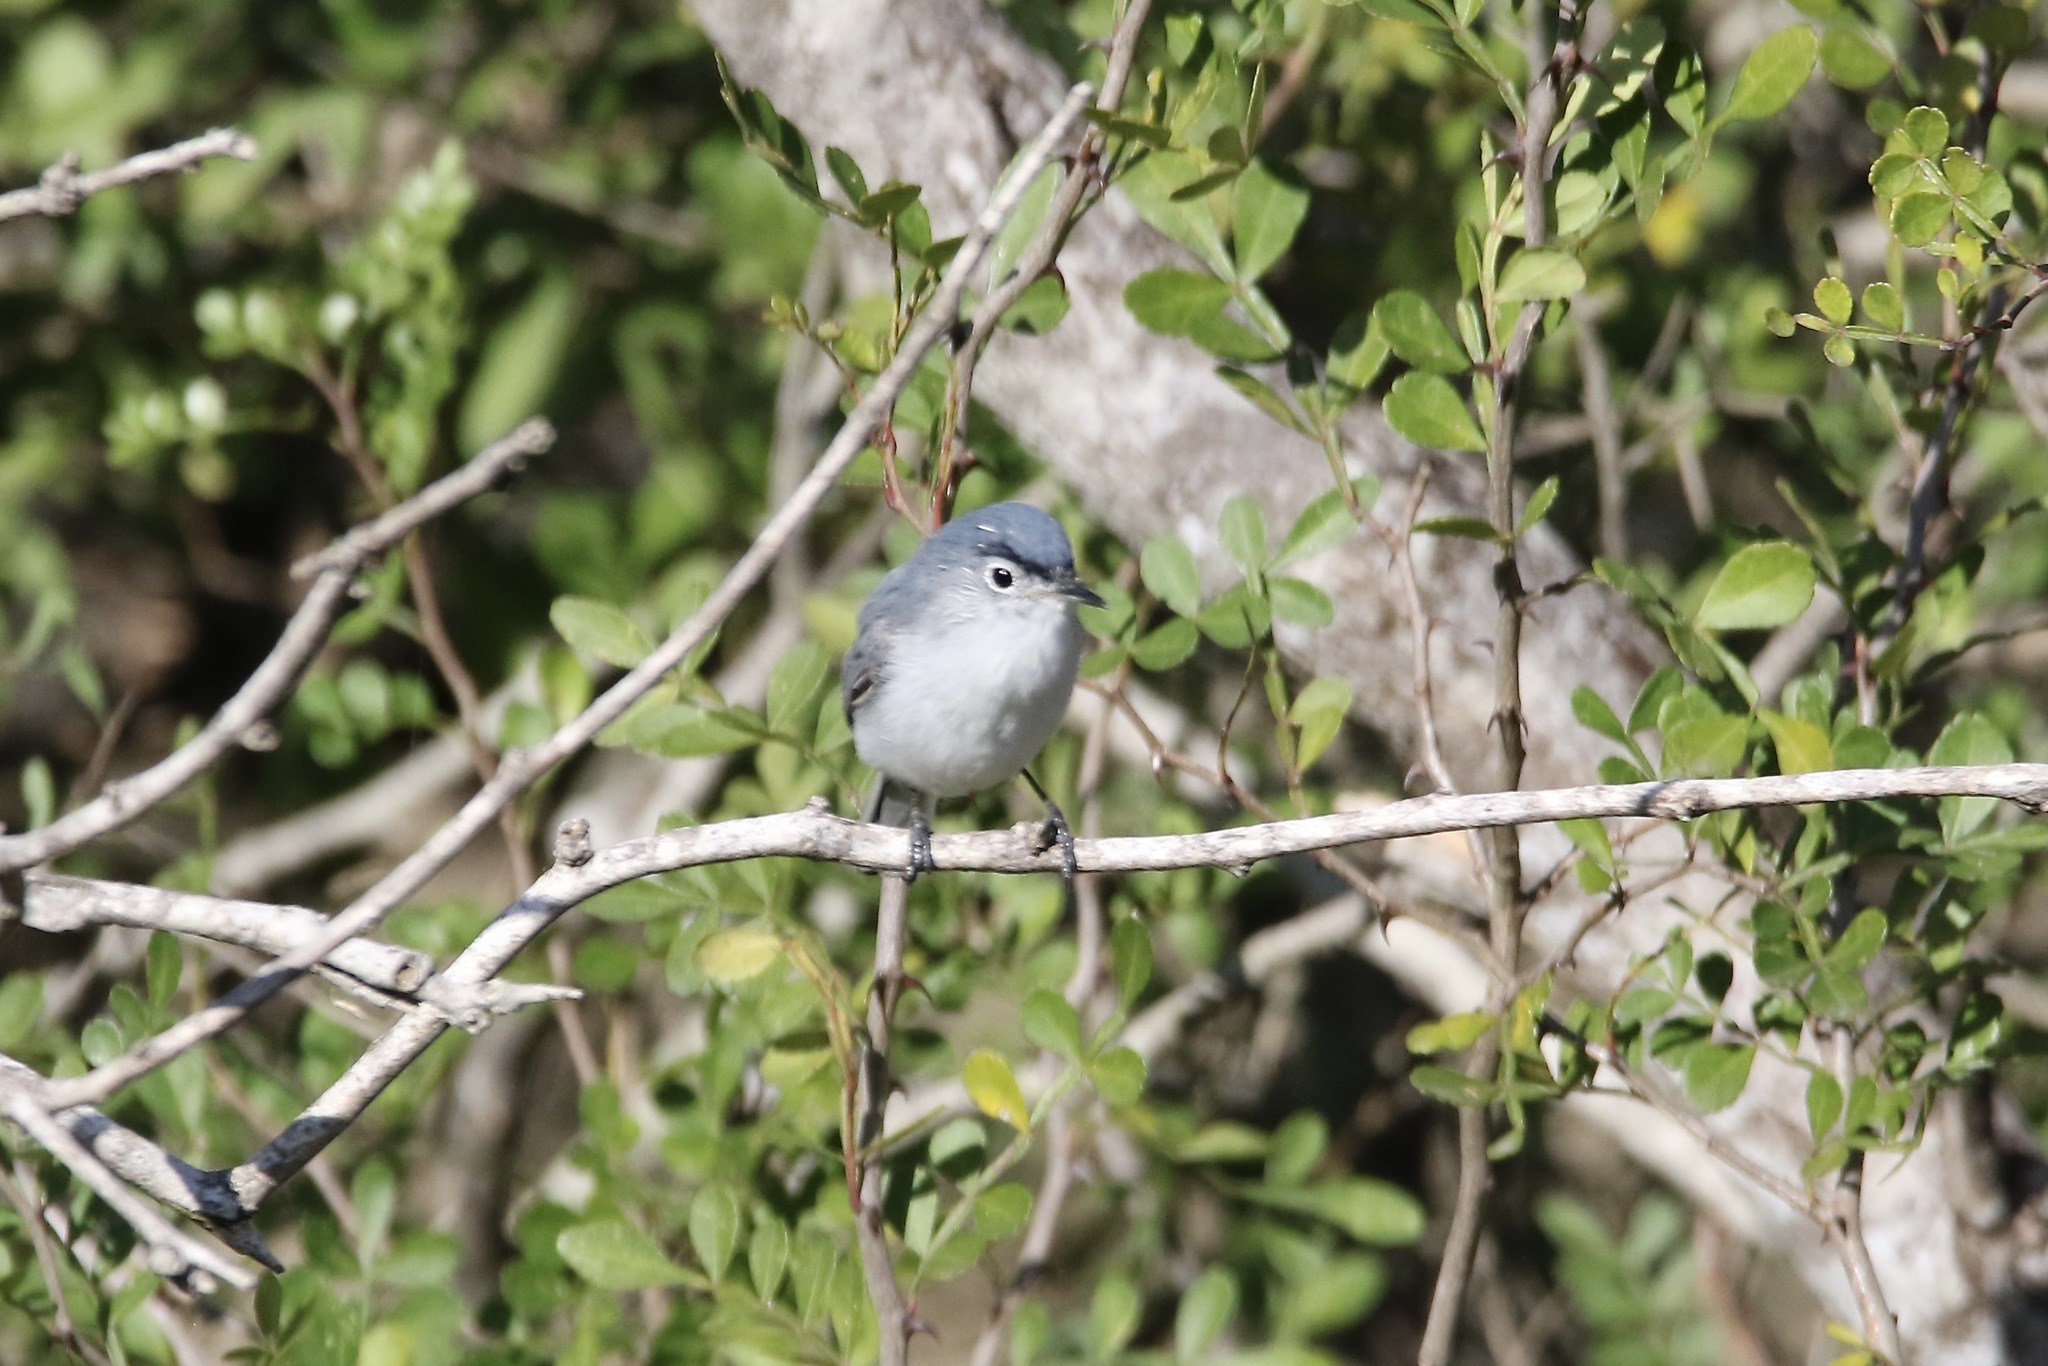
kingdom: Animalia
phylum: Chordata
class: Aves
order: Passeriformes
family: Polioptilidae
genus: Polioptila
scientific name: Polioptila caerulea
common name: Blue-gray gnatcatcher
